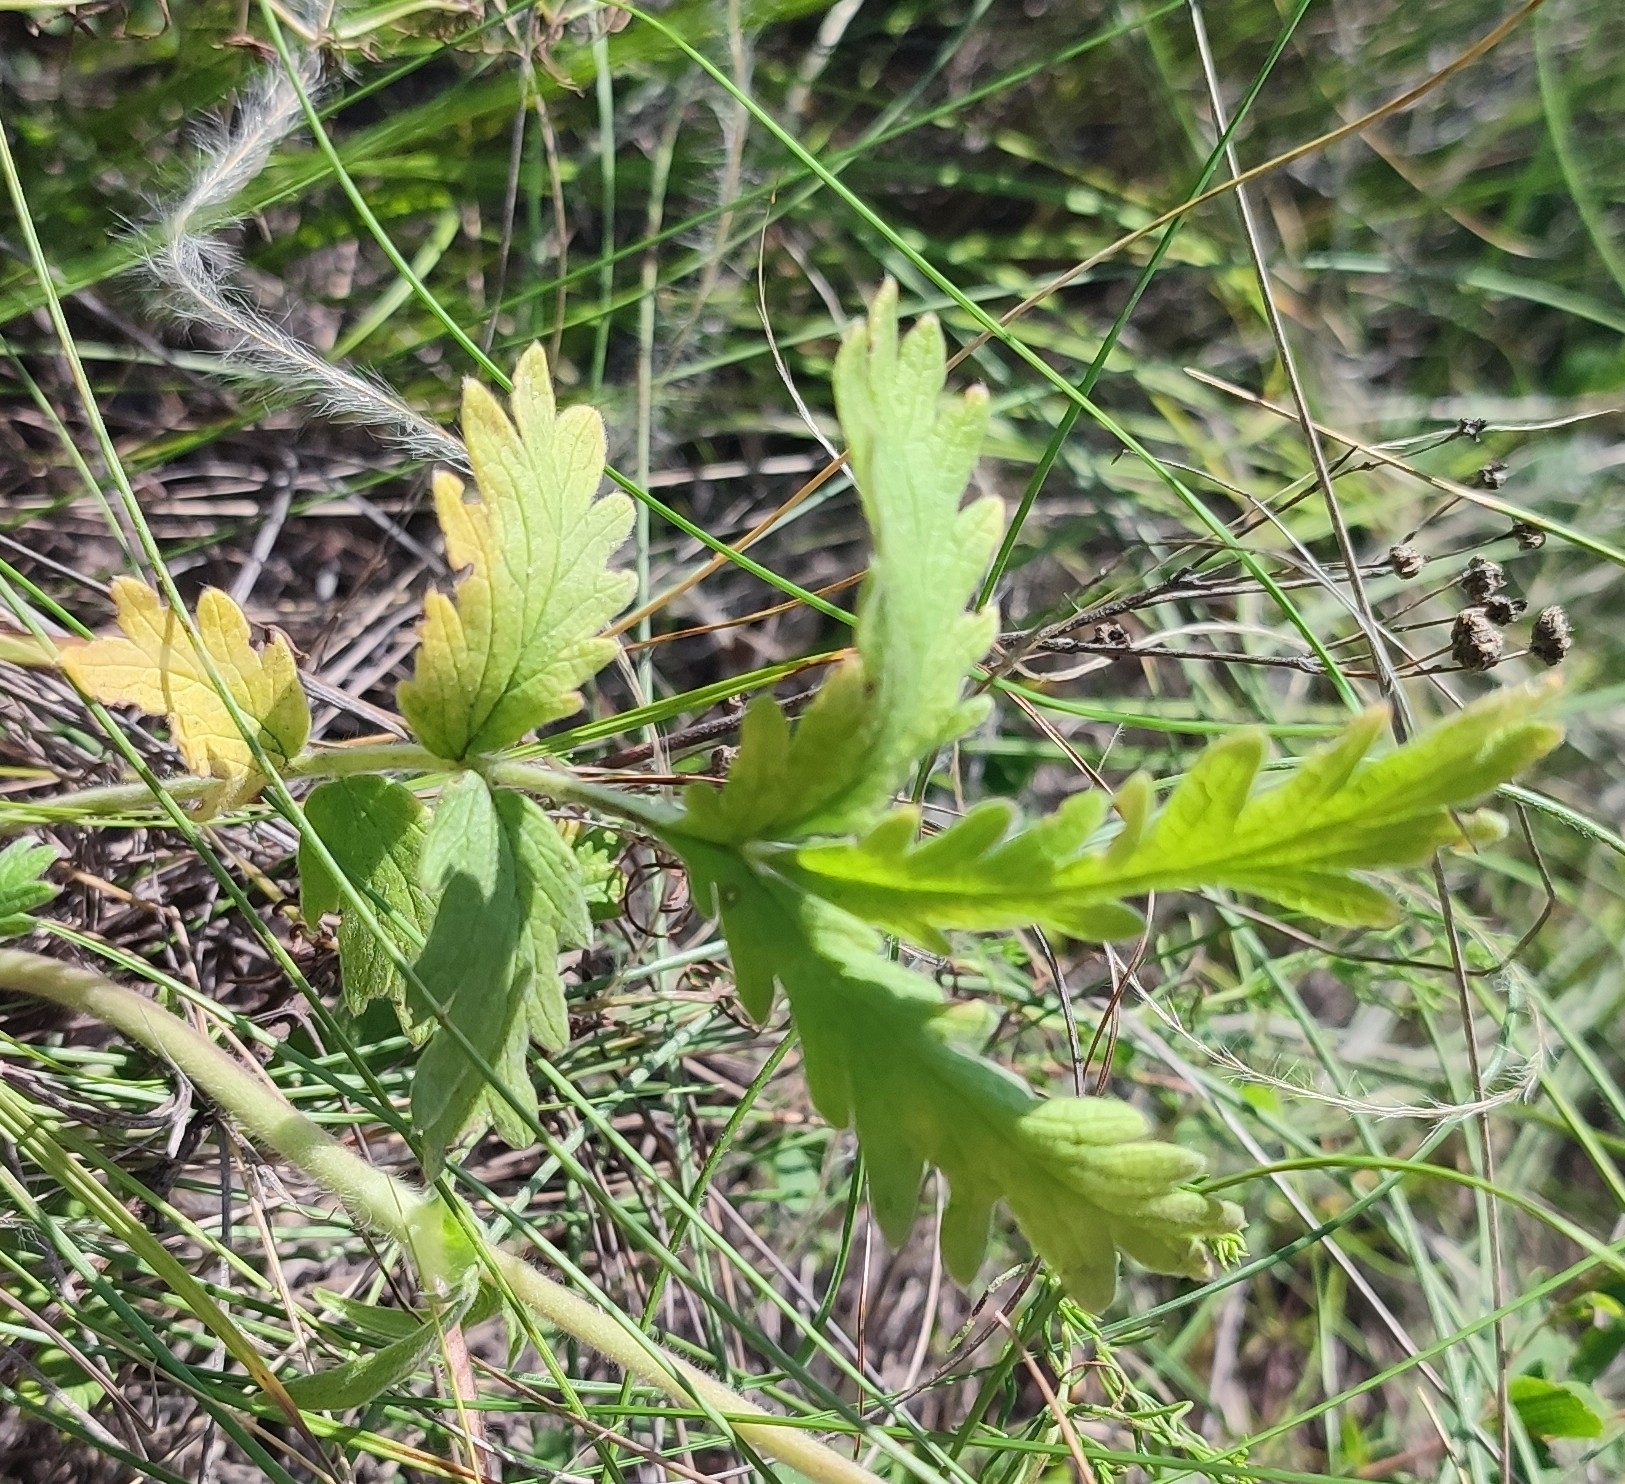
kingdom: Plantae
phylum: Tracheophyta
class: Magnoliopsida
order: Rosales
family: Rosaceae
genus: Potentilla
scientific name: Potentilla pensylvanica
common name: Pennsylvania cinquefoil
